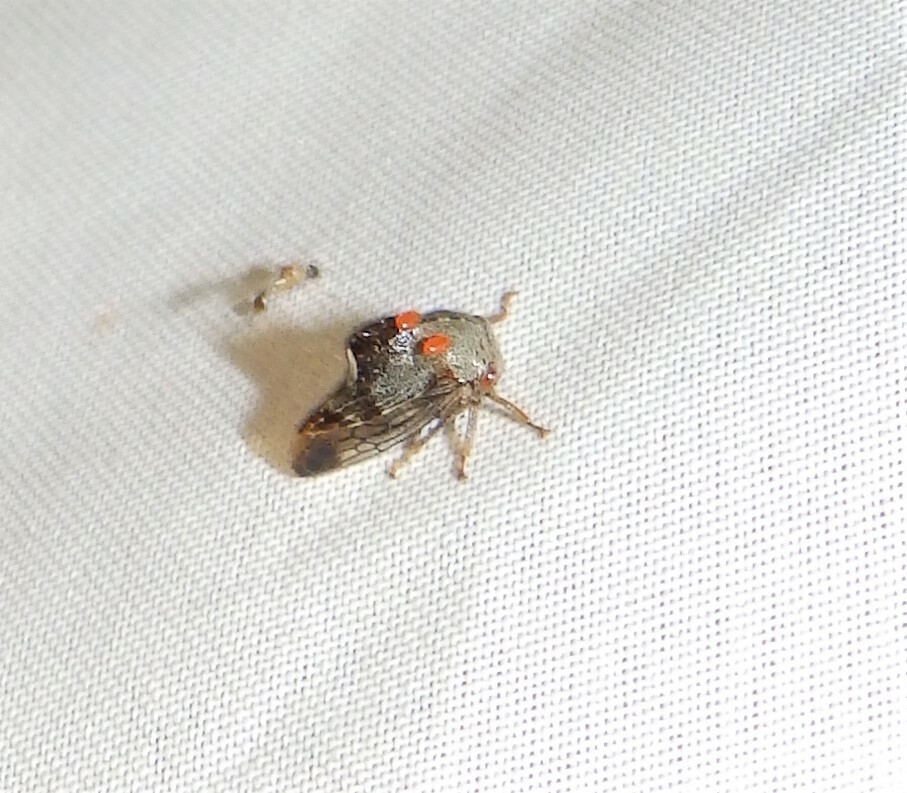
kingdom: Animalia
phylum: Arthropoda
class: Insecta
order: Hemiptera
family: Membracidae
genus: Telamona
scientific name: Telamona decorata
